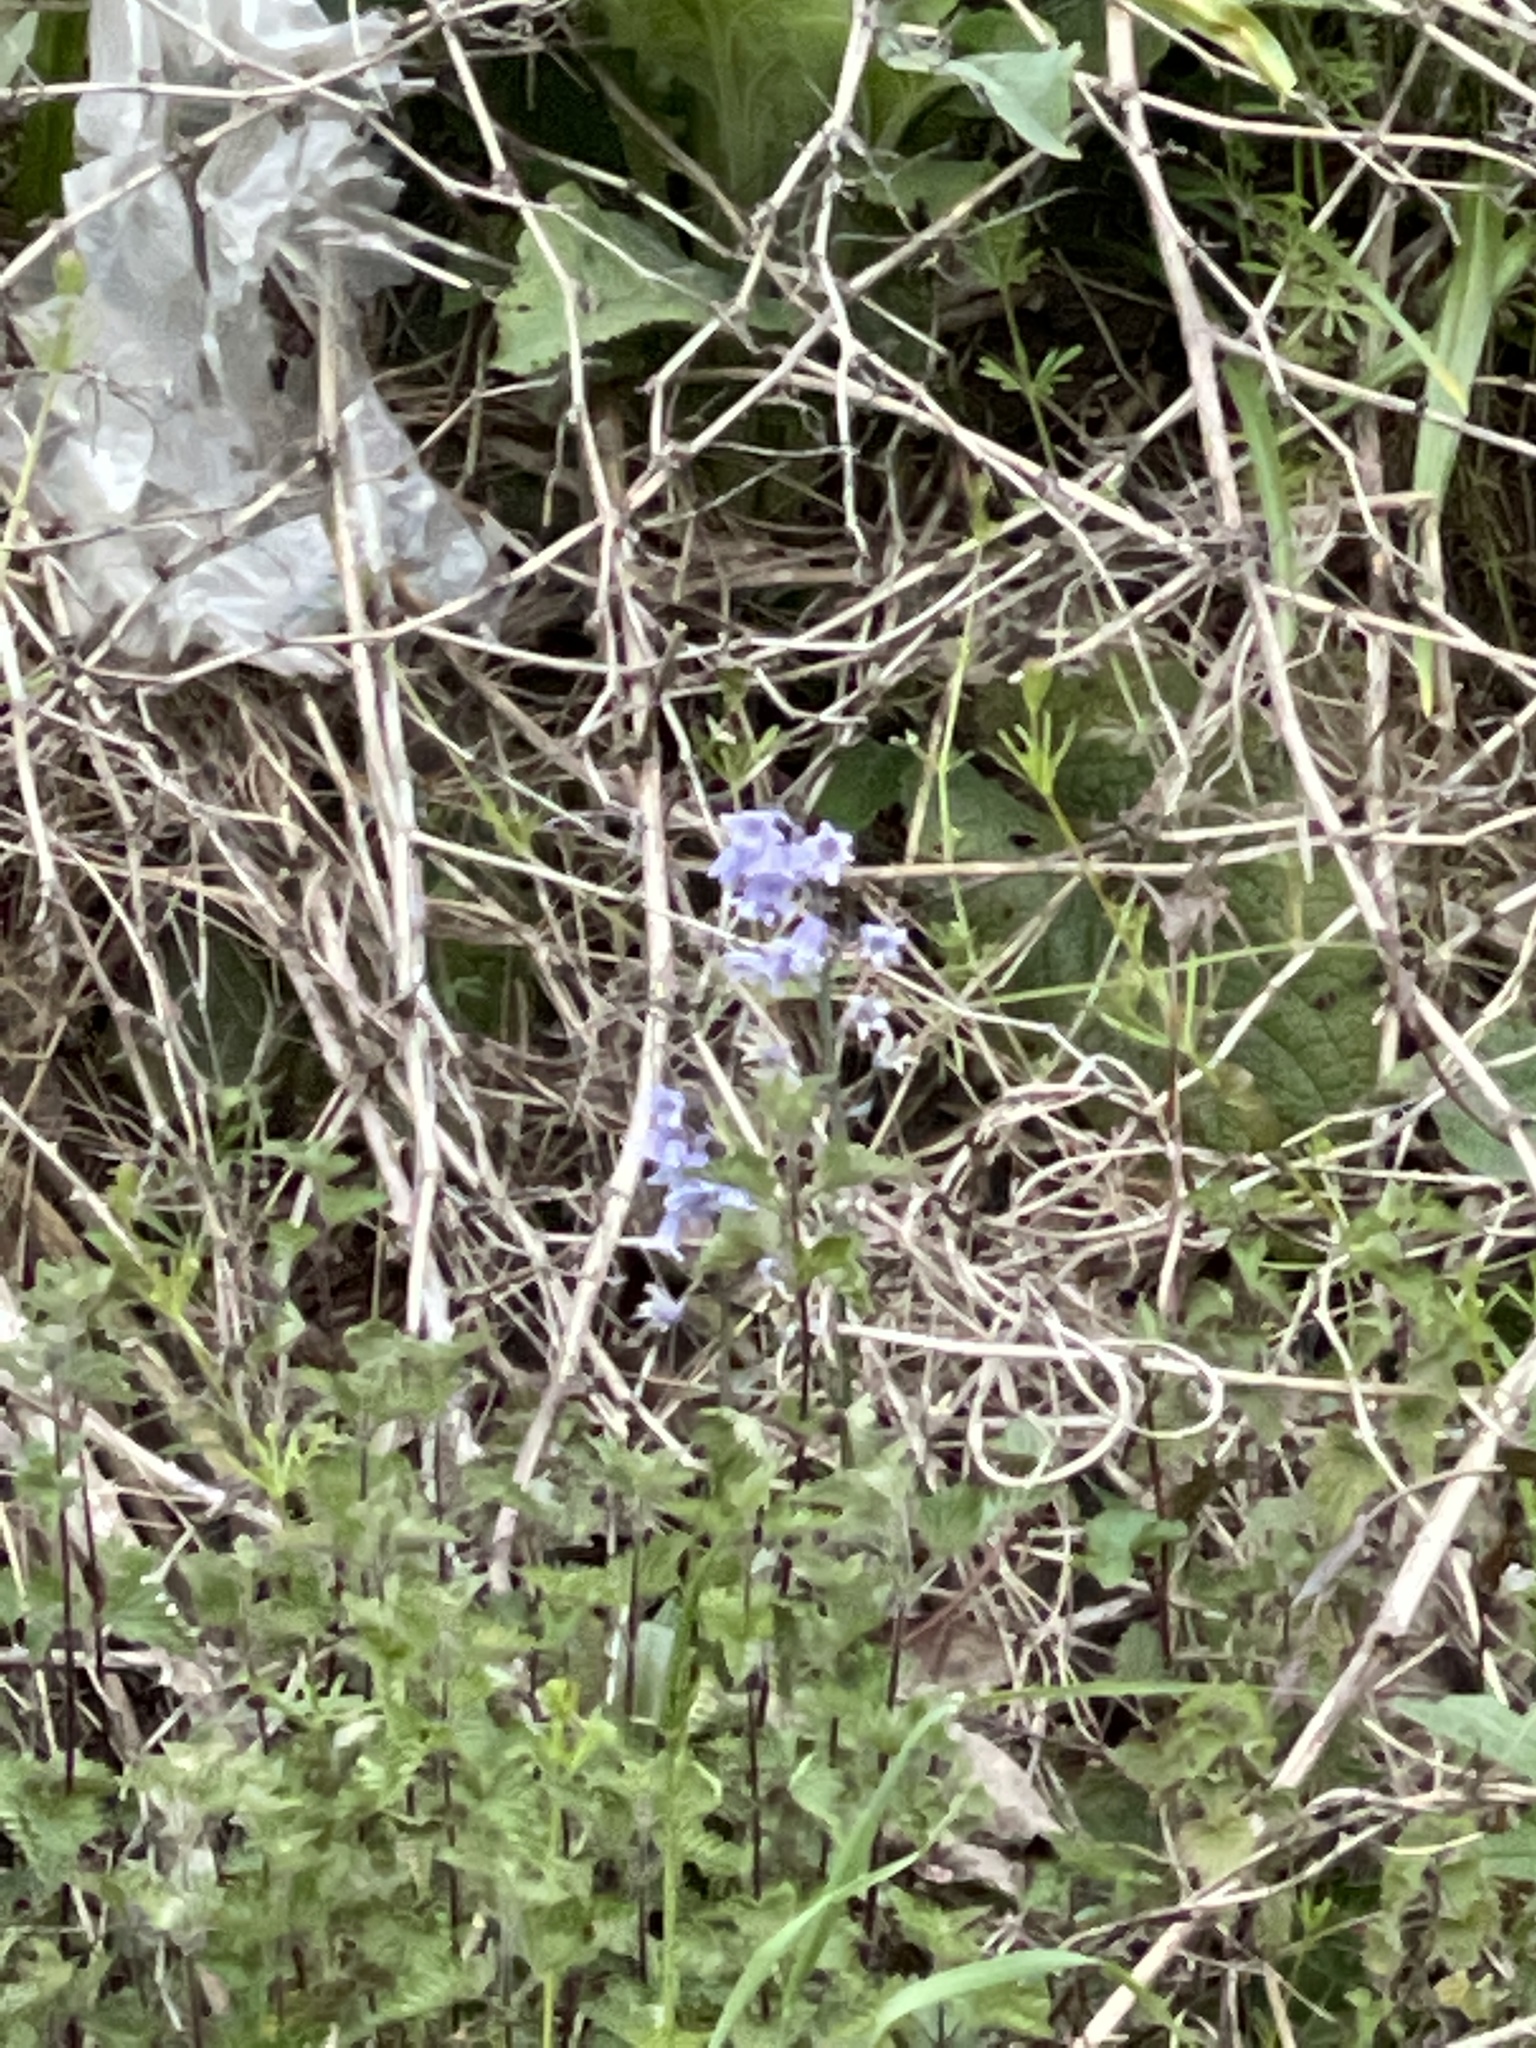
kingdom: Plantae
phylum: Tracheophyta
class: Liliopsida
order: Asparagales
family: Asparagaceae
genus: Hyacinthoides
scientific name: Hyacinthoides massartiana
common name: Hyacinthoides
